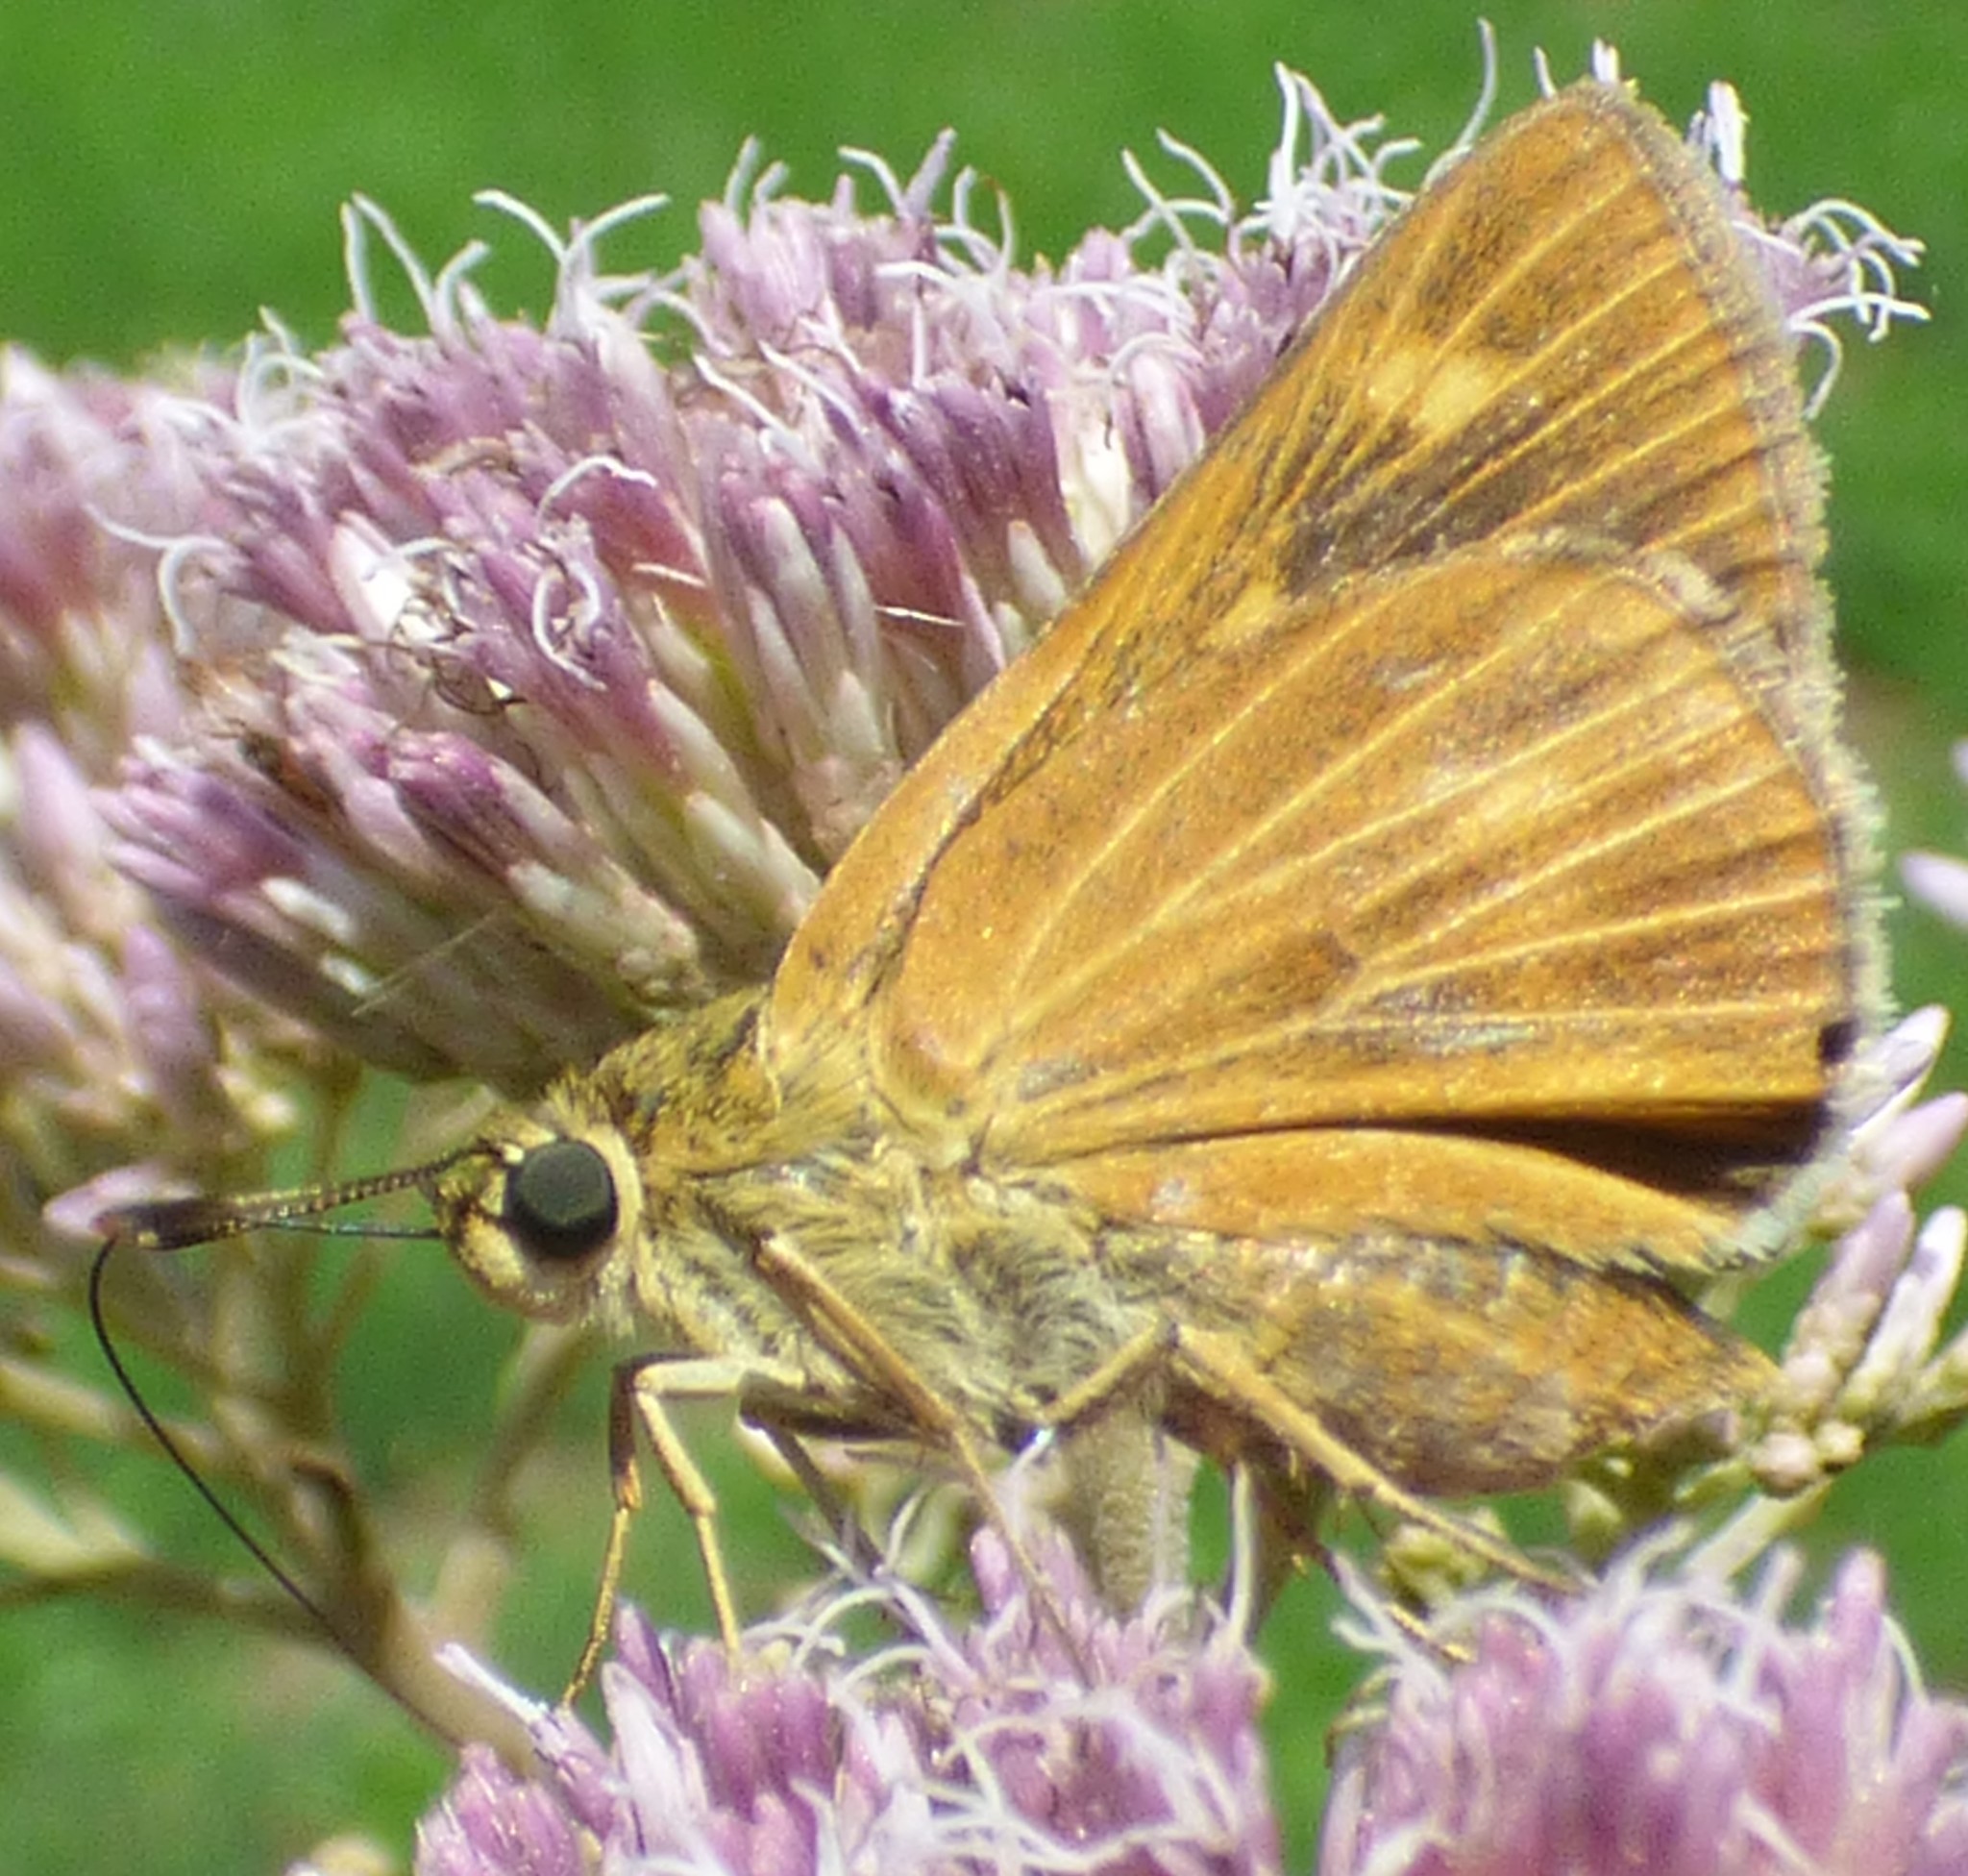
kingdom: Animalia
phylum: Arthropoda
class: Insecta
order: Lepidoptera
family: Hesperiidae
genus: Problema
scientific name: Problema byssus
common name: Byssus skipper
